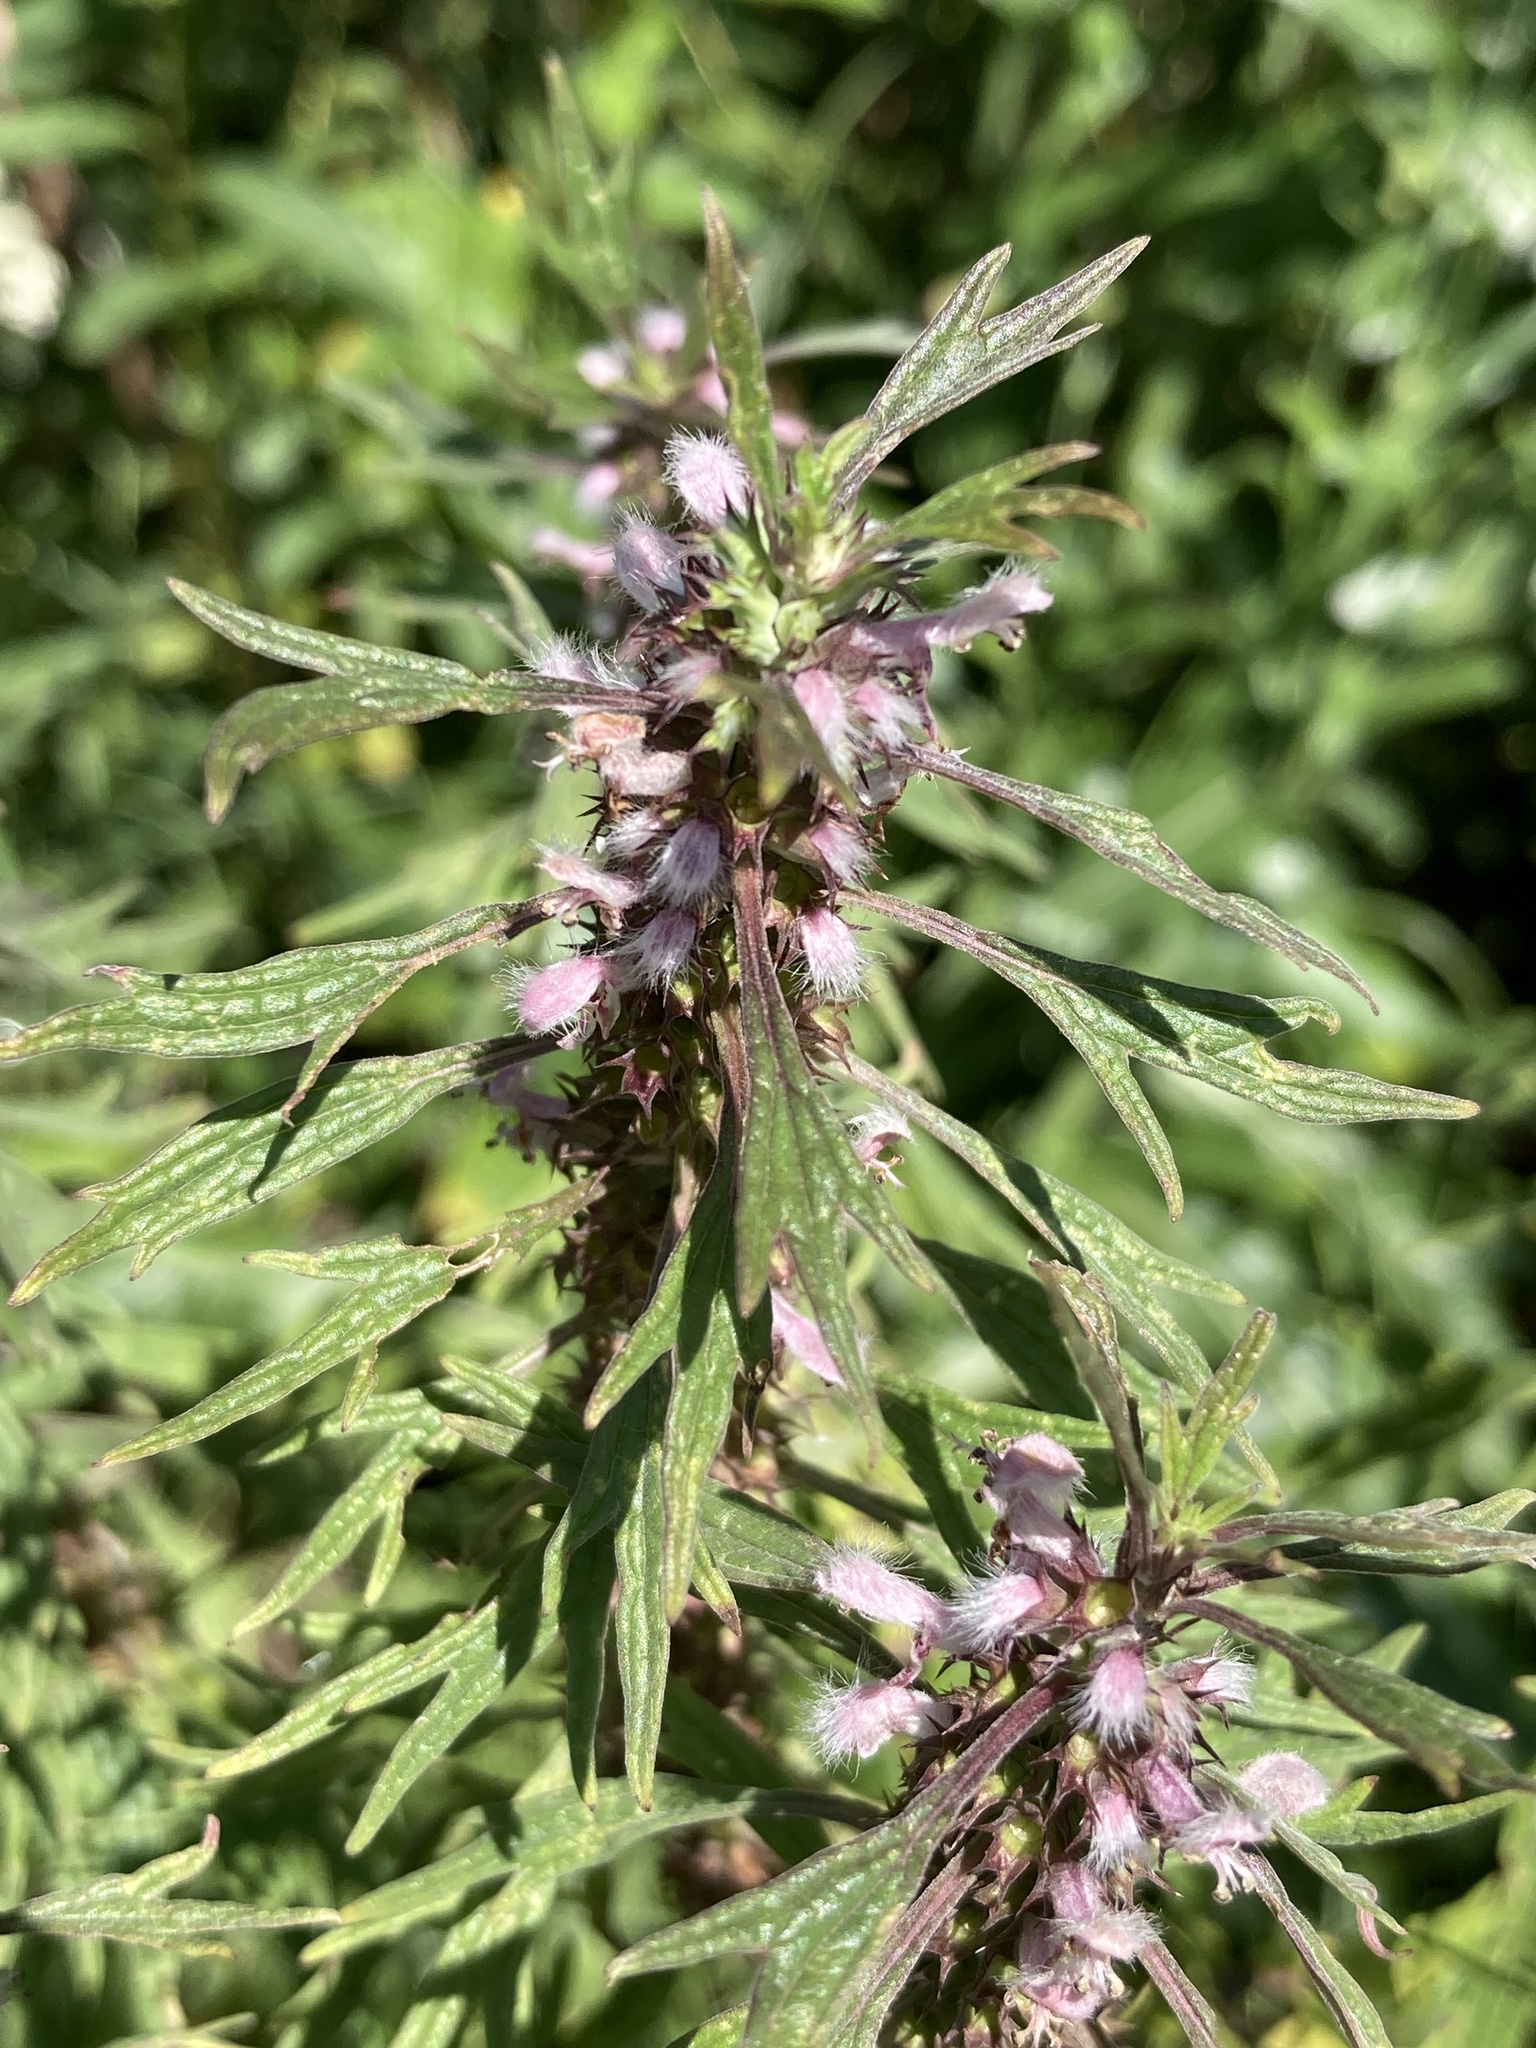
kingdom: Plantae
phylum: Tracheophyta
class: Magnoliopsida
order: Lamiales
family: Lamiaceae
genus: Leonurus
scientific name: Leonurus glaucescens
